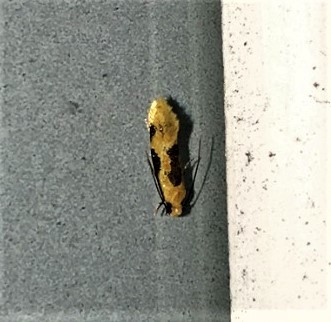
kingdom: Animalia
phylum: Arthropoda
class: Insecta
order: Lepidoptera
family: Meessiidae
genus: Hybroma
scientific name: Hybroma servulella
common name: Yellow wave moth
